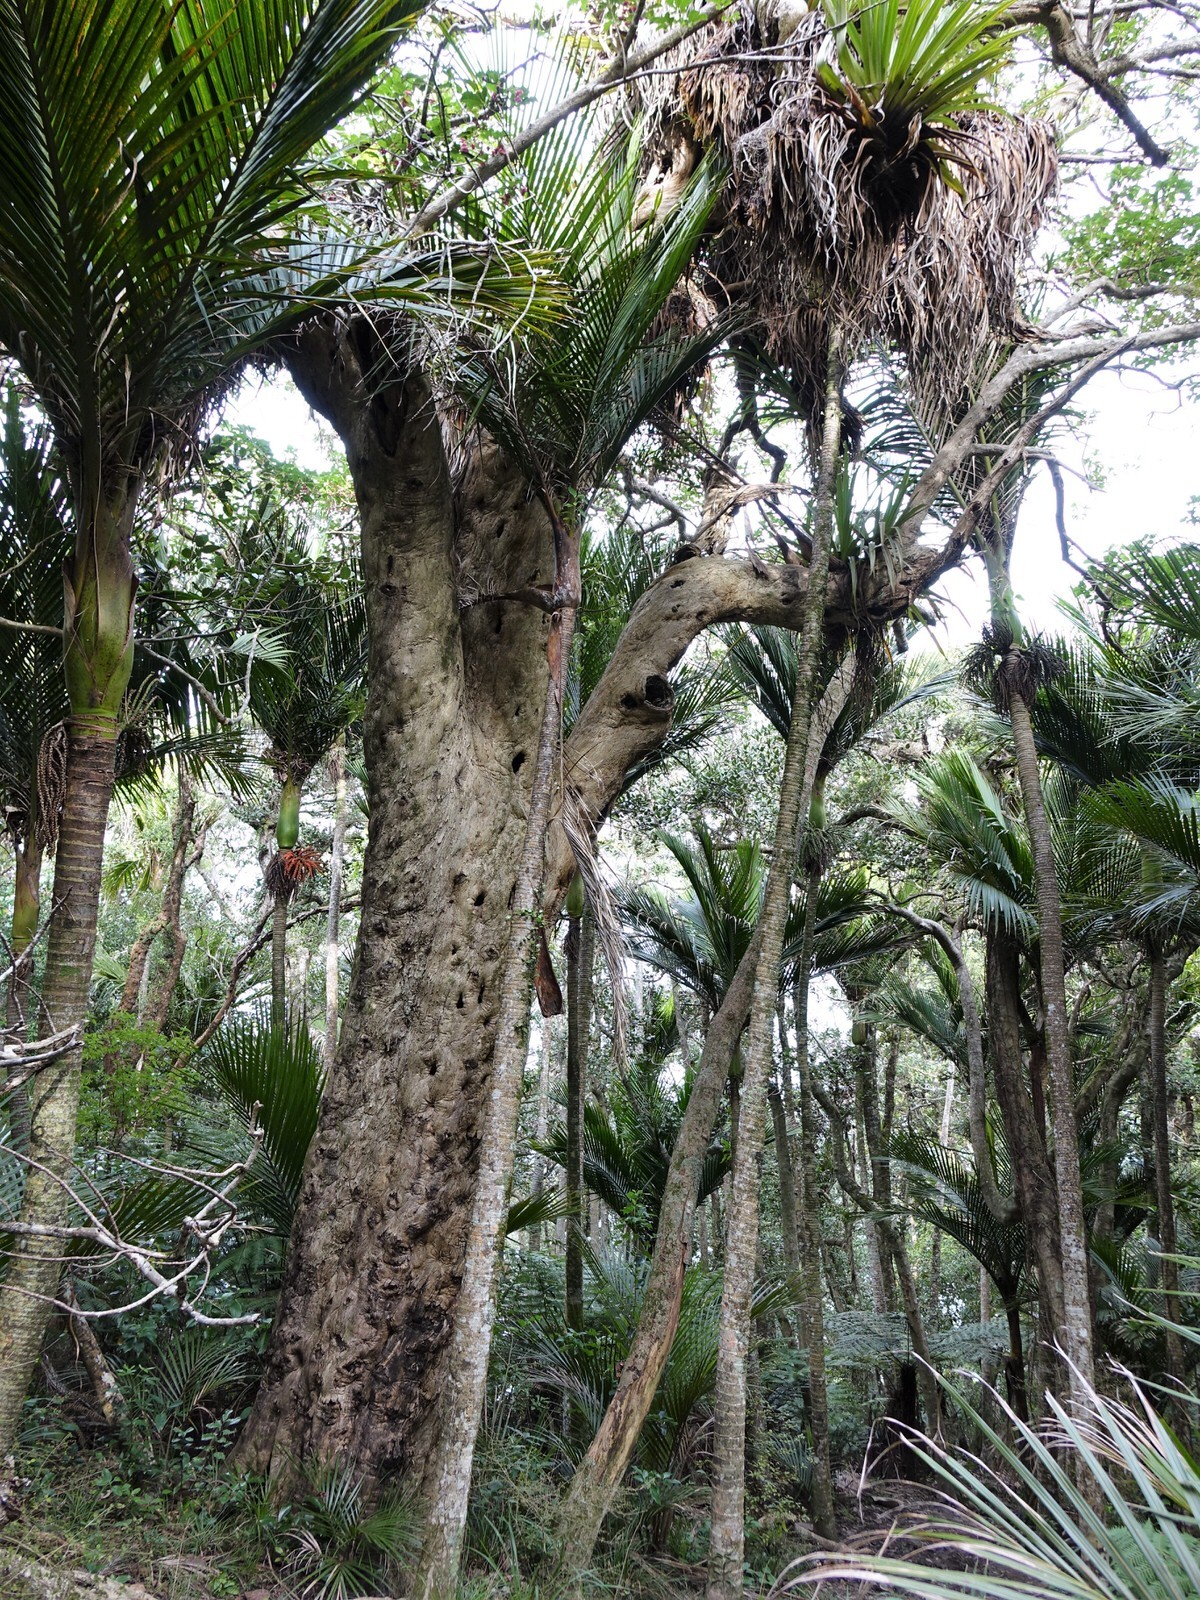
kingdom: Plantae
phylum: Tracheophyta
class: Magnoliopsida
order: Lamiales
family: Lamiaceae
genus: Vitex
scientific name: Vitex lucens
